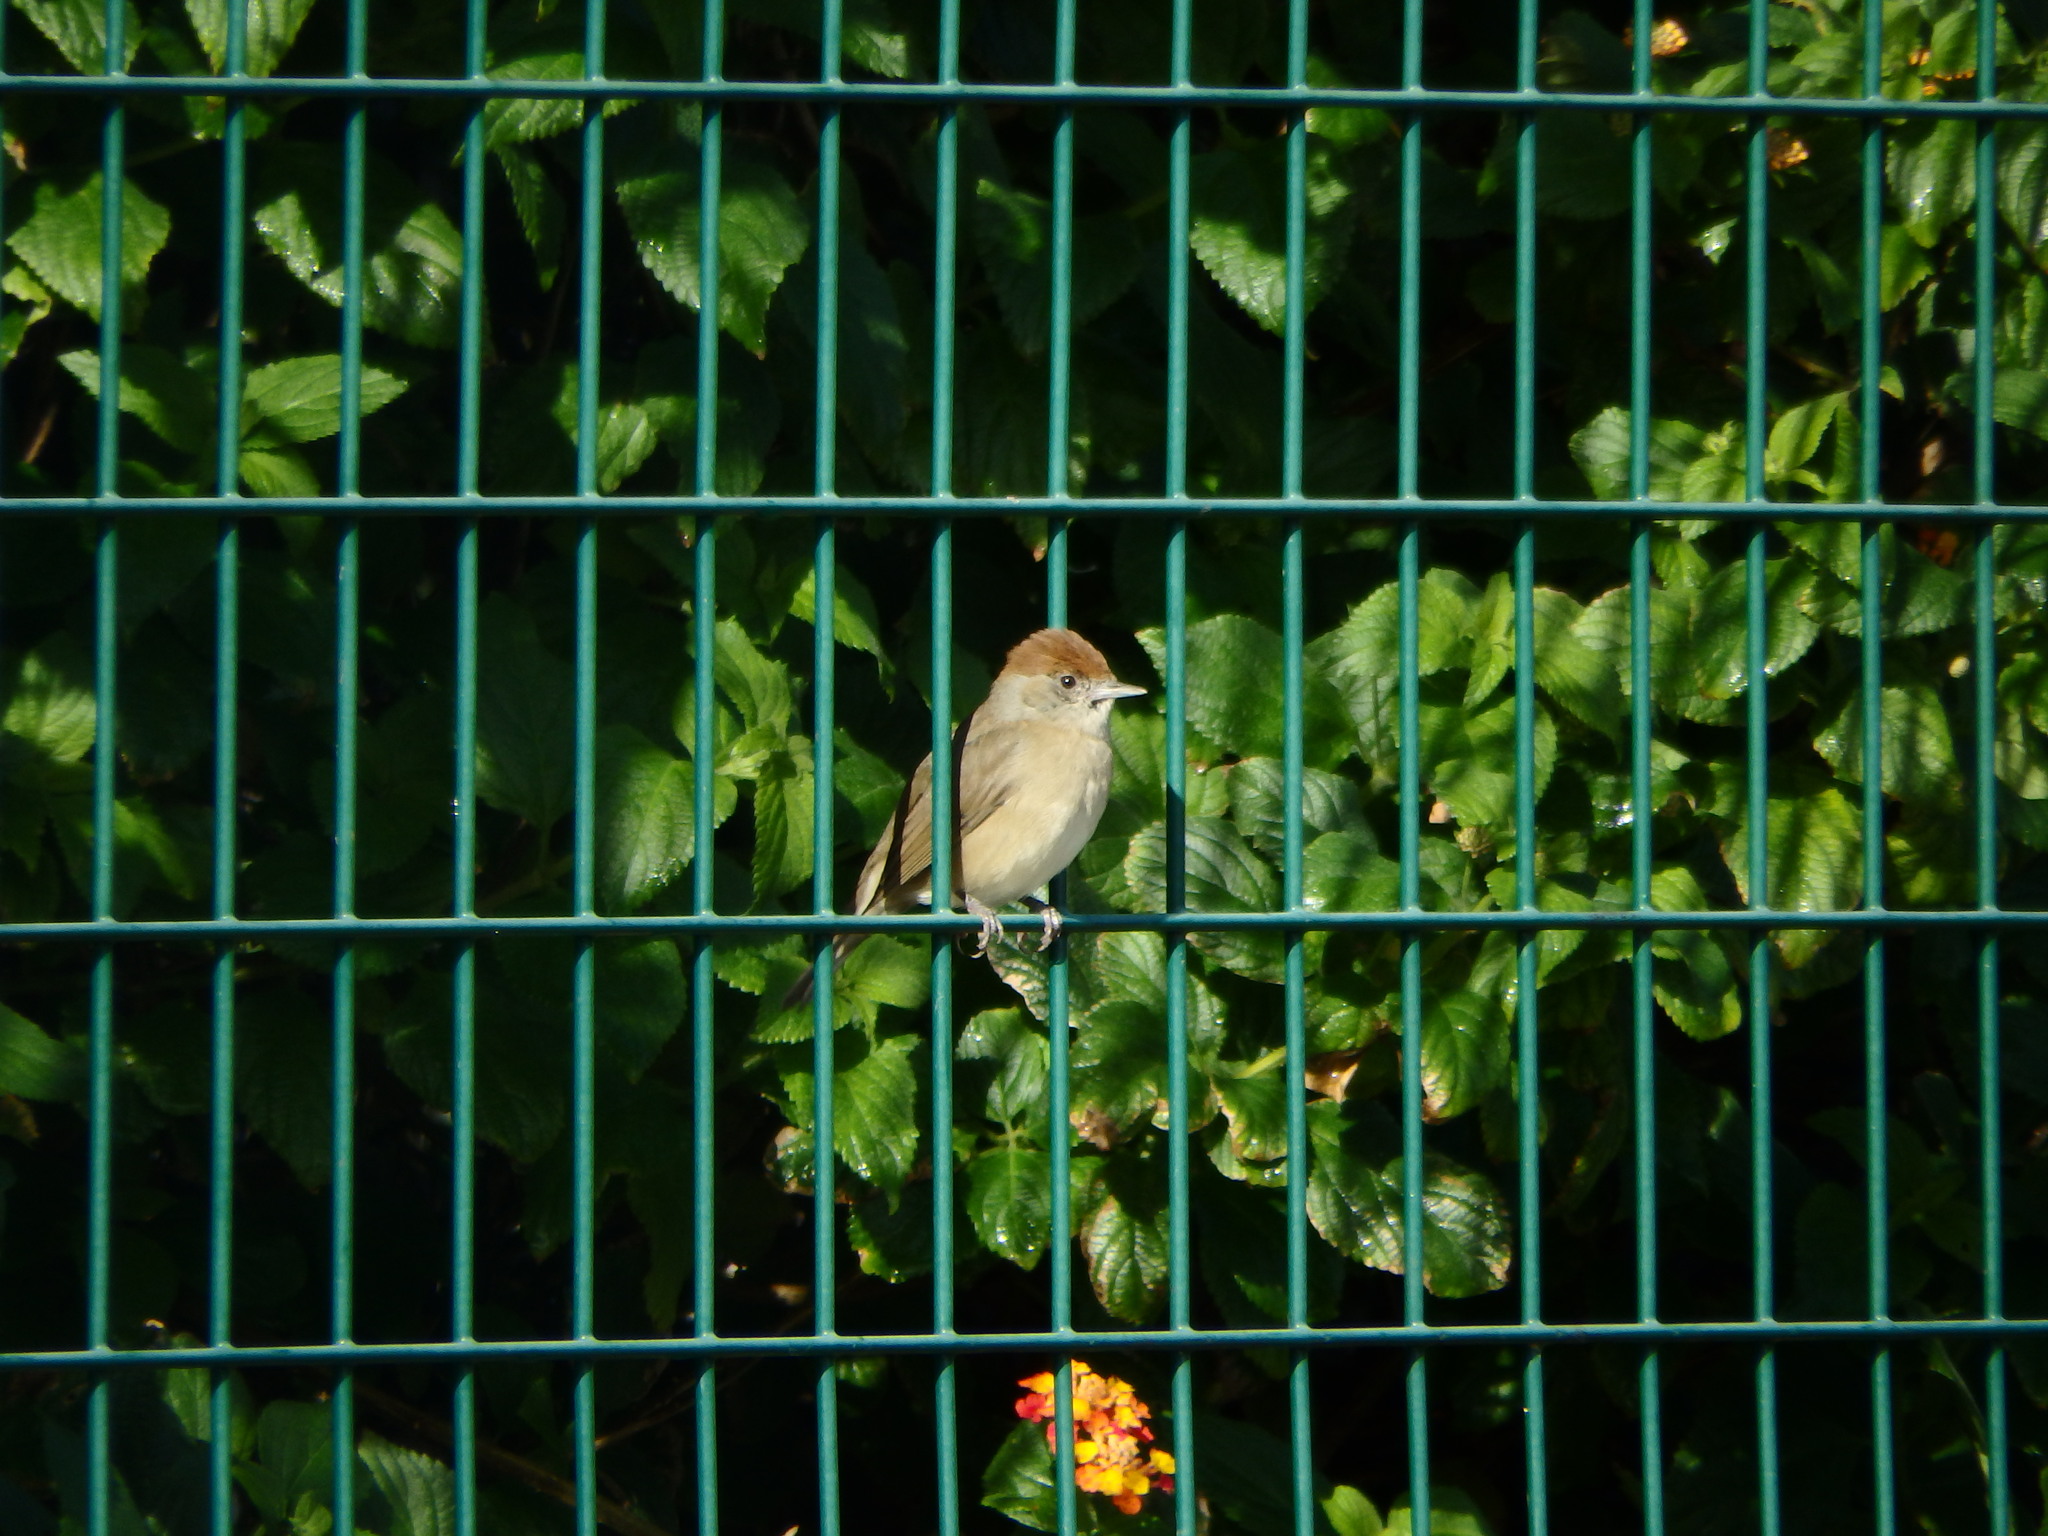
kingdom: Animalia
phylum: Chordata
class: Aves
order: Passeriformes
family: Sylviidae
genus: Sylvia
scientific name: Sylvia atricapilla
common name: Eurasian blackcap
